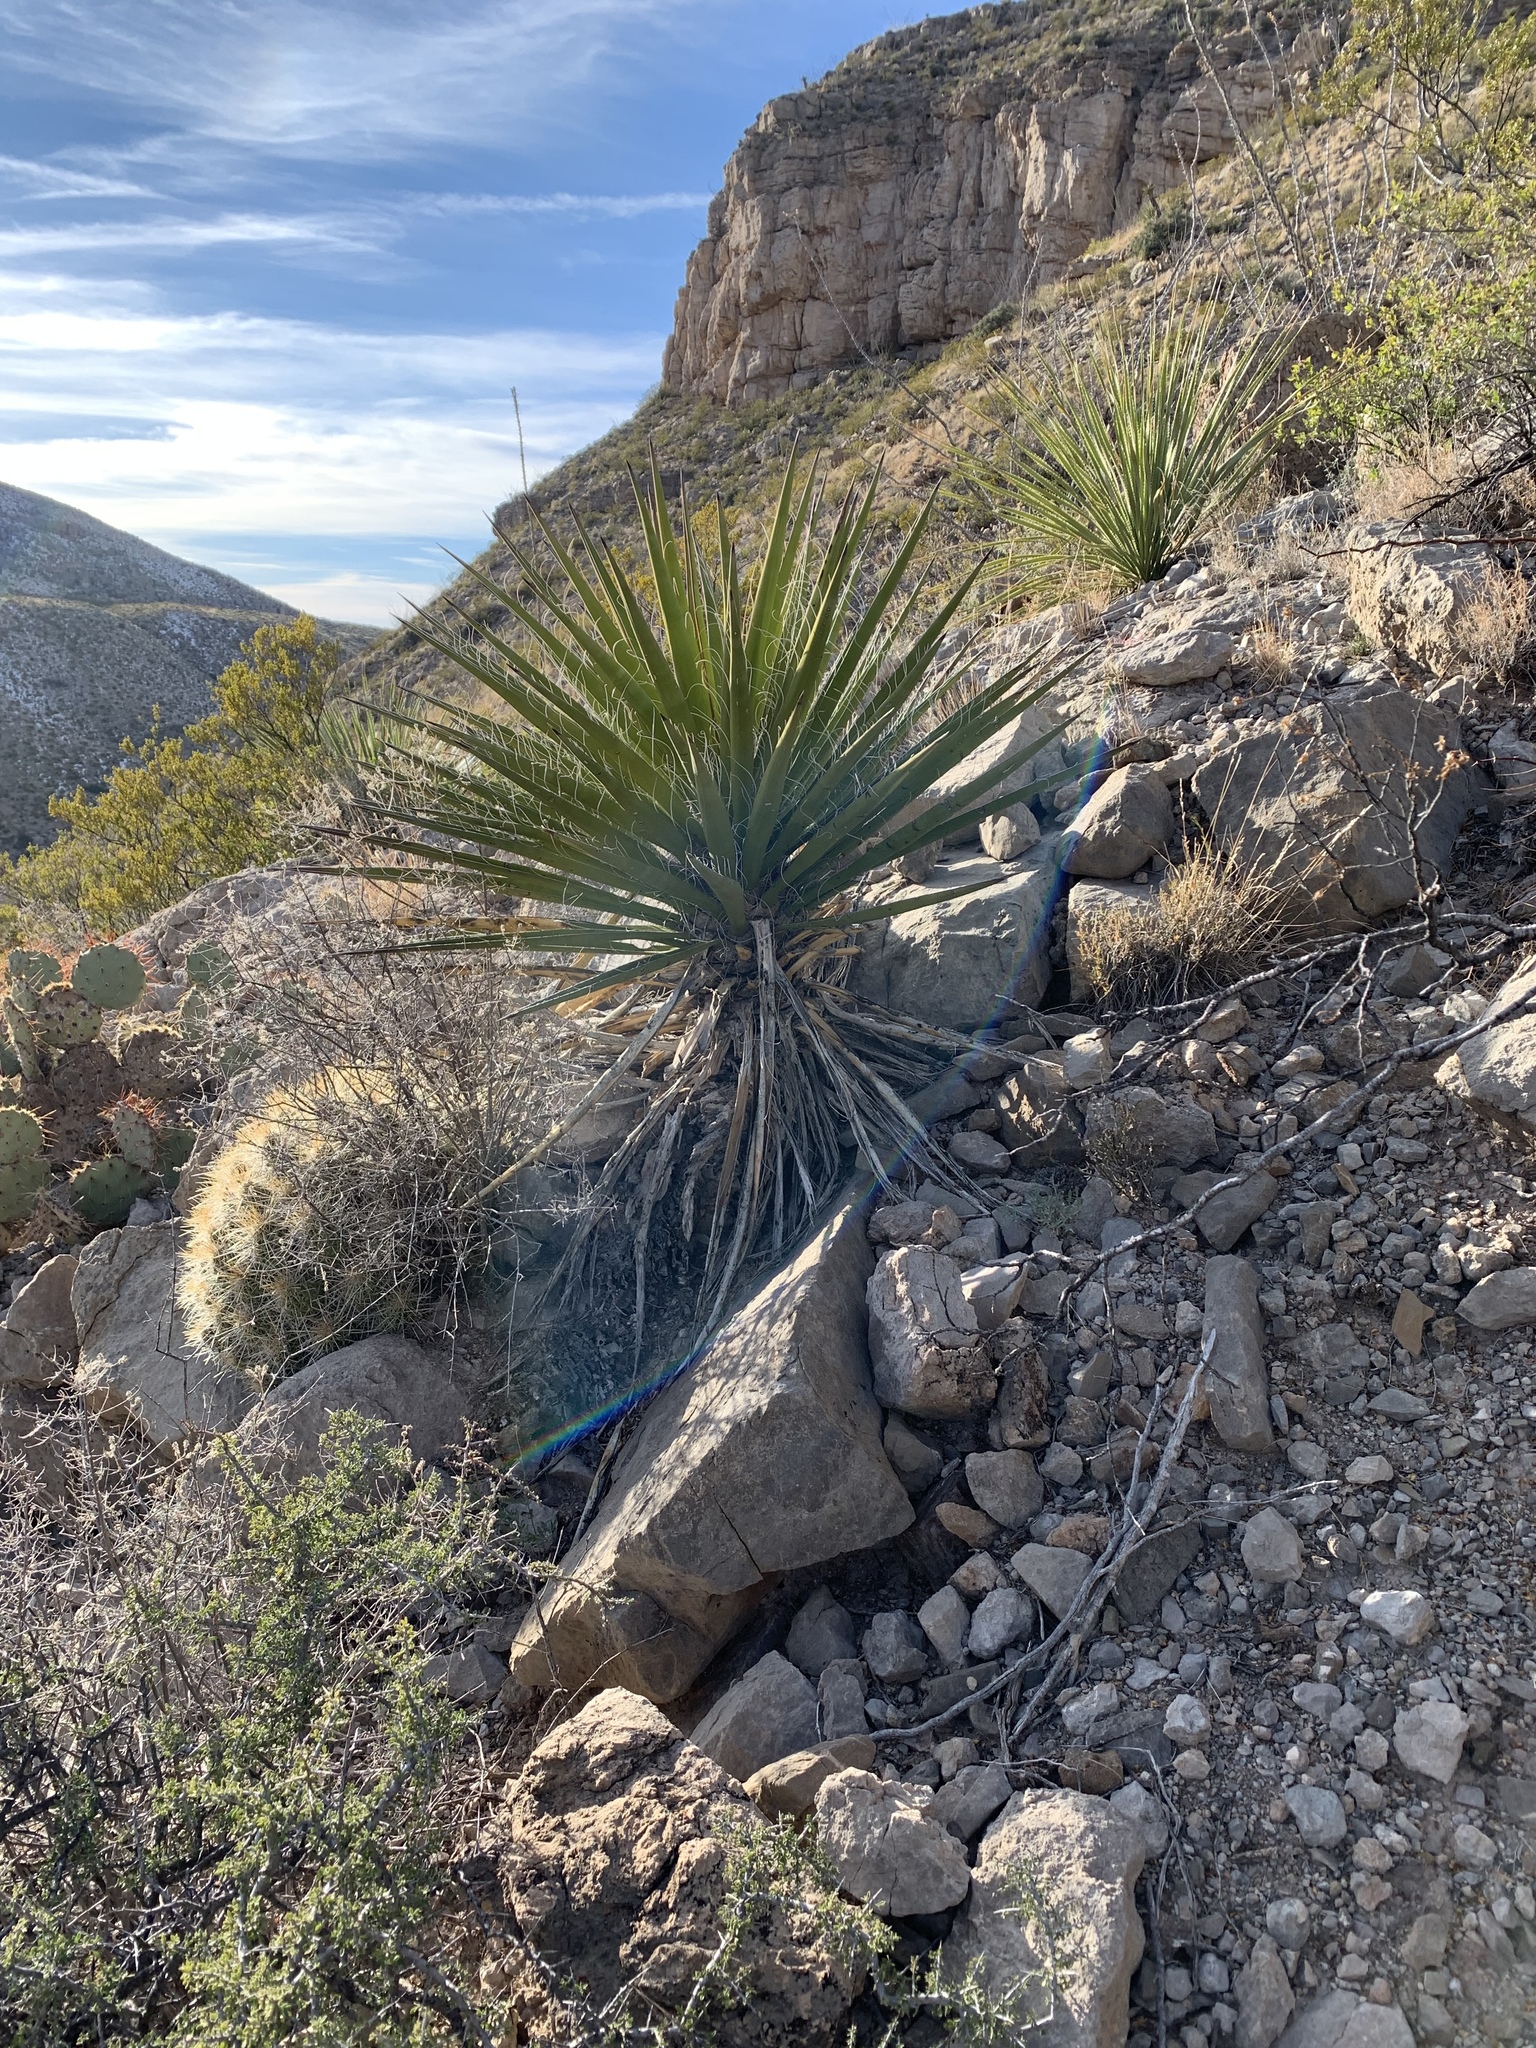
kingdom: Plantae
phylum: Tracheophyta
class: Liliopsida
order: Asparagales
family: Asparagaceae
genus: Yucca
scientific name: Yucca treculiana
